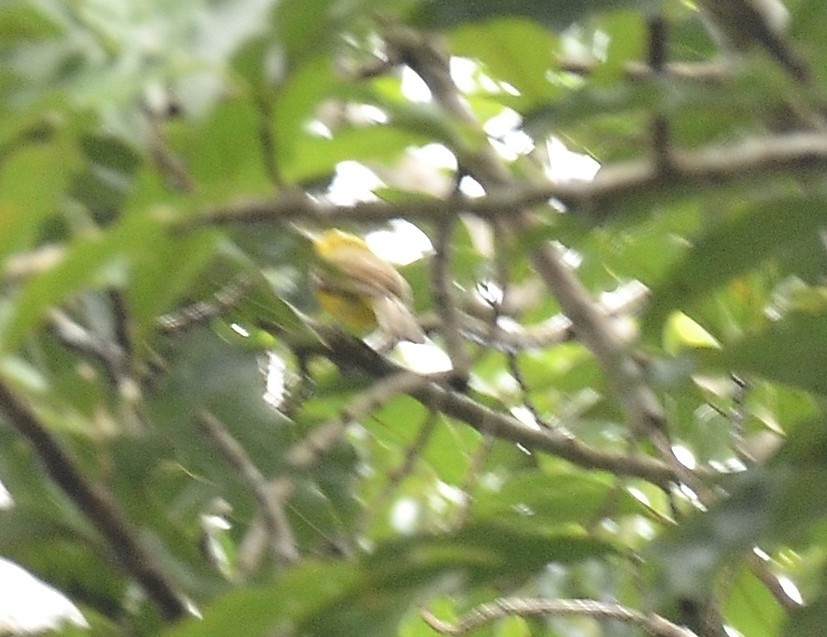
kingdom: Animalia
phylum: Chordata
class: Aves
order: Passeriformes
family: Pycnonotidae
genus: Acritillas
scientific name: Acritillas indica
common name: Yellow-browed bulbul
